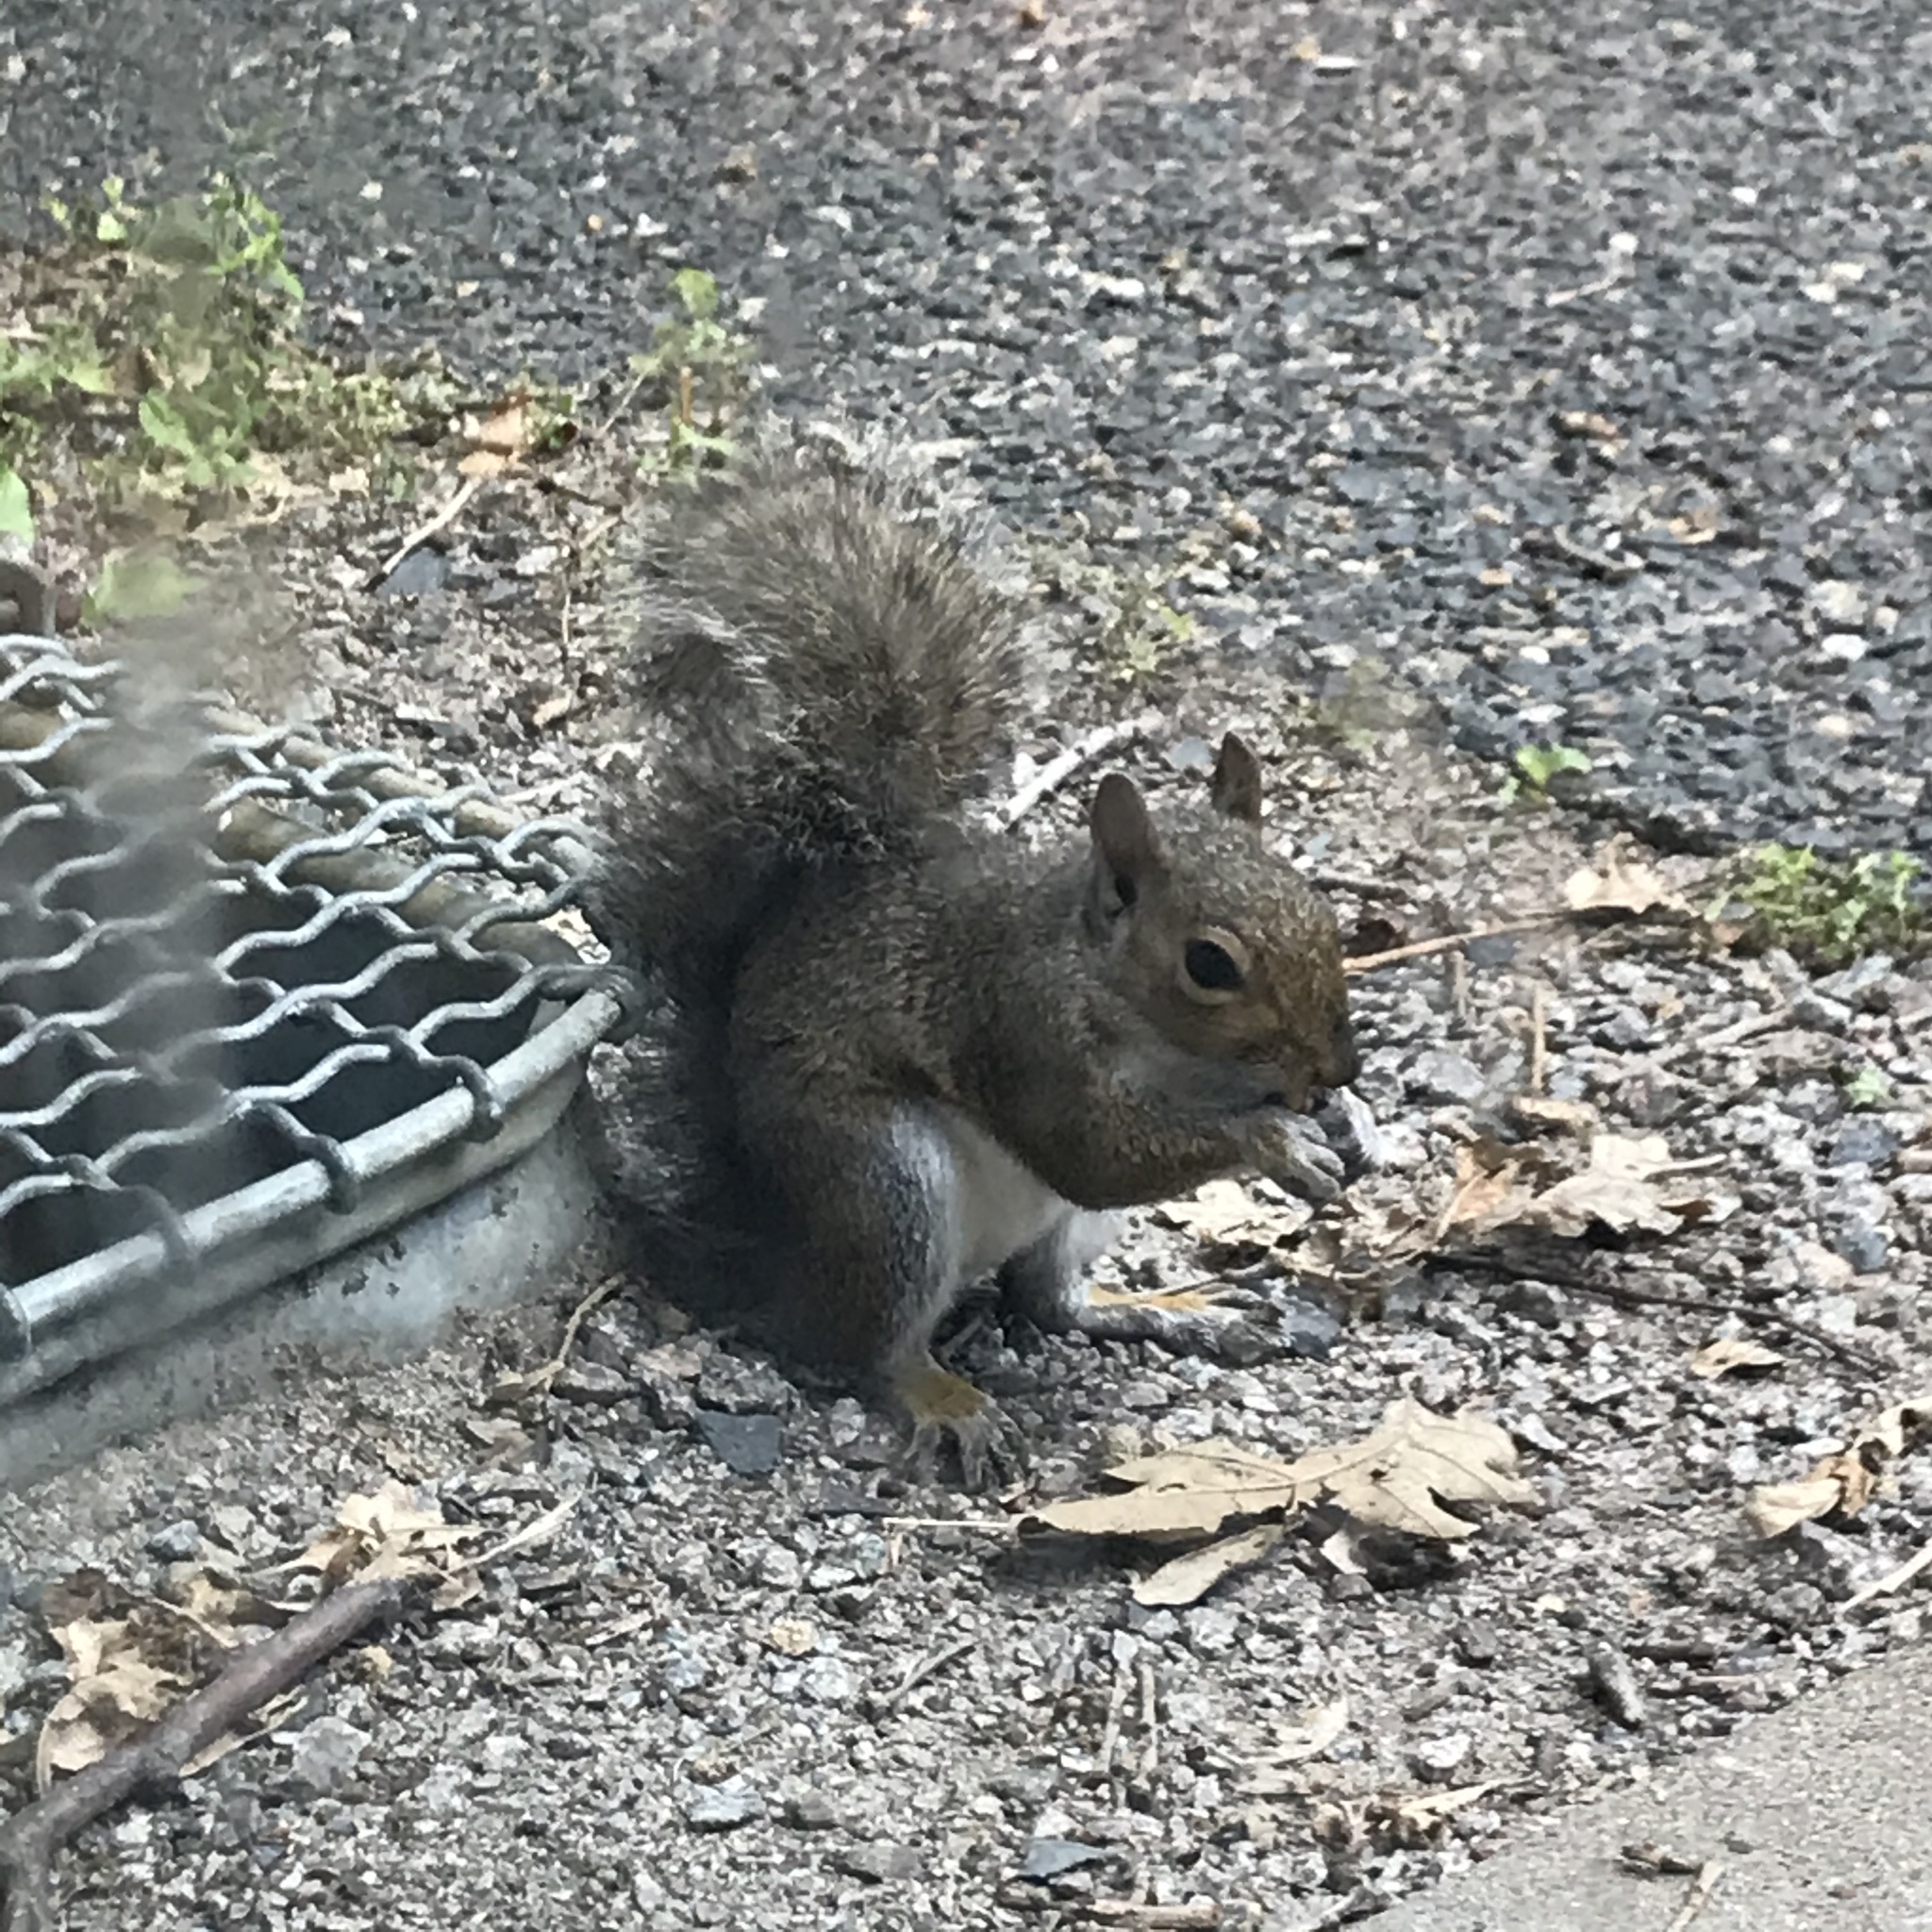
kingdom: Animalia
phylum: Chordata
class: Mammalia
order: Rodentia
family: Sciuridae
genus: Sciurus
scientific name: Sciurus carolinensis
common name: Eastern gray squirrel
